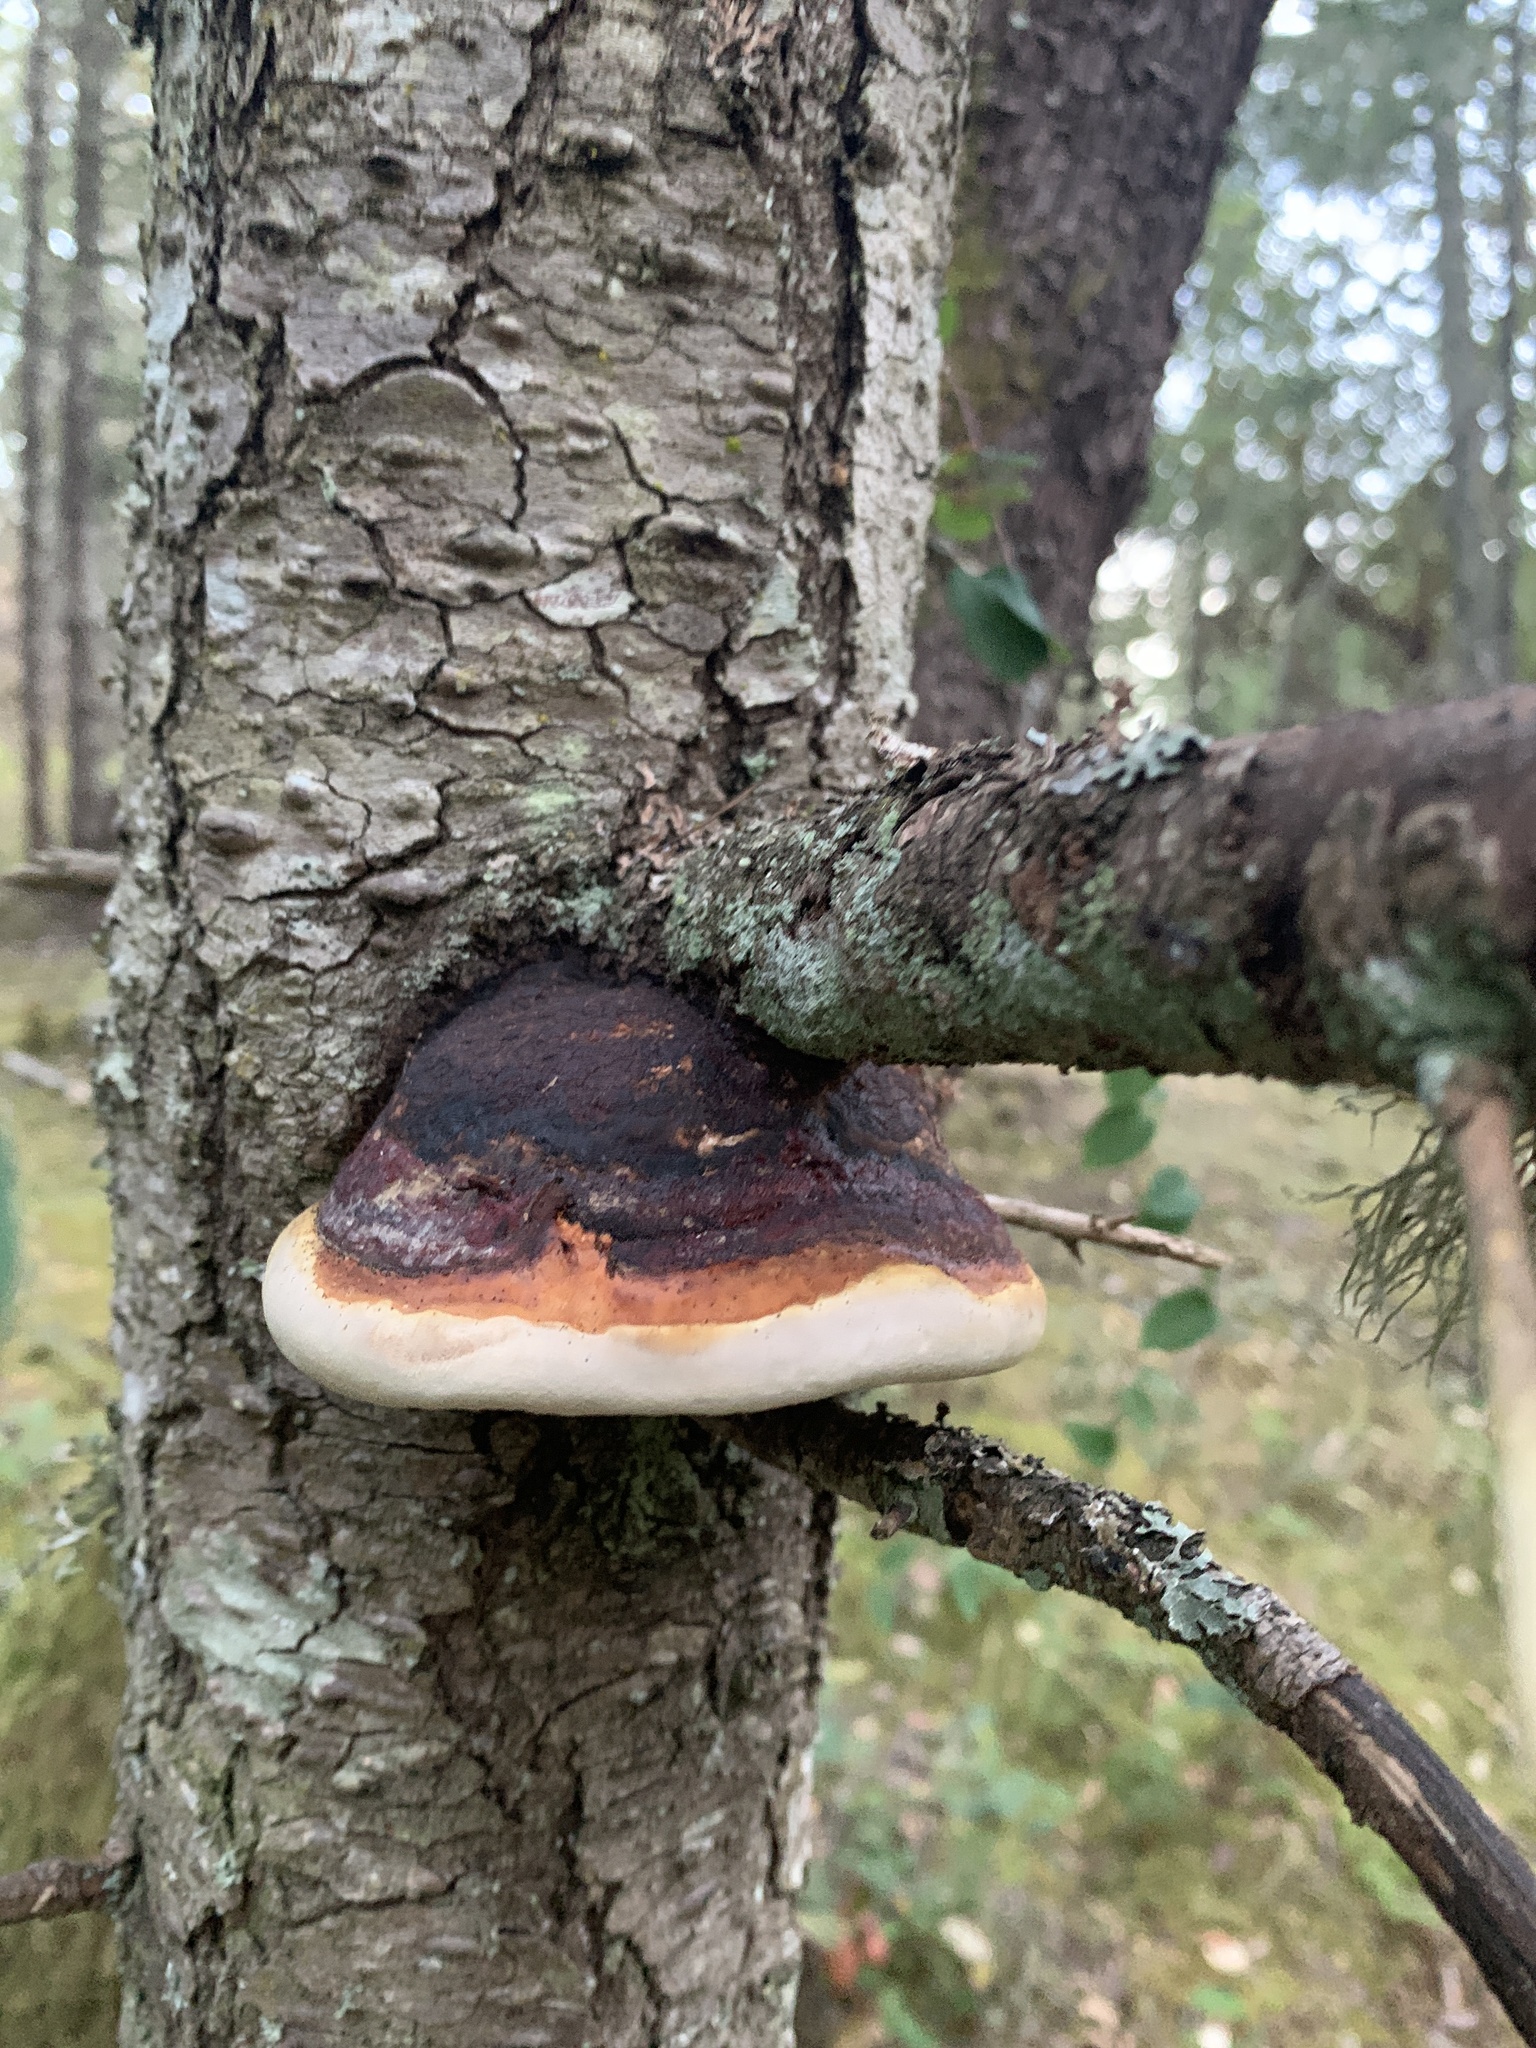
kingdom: Fungi
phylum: Basidiomycota
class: Agaricomycetes
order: Polyporales
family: Fomitopsidaceae
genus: Fomitopsis
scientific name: Fomitopsis mounceae
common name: Northern red belt
